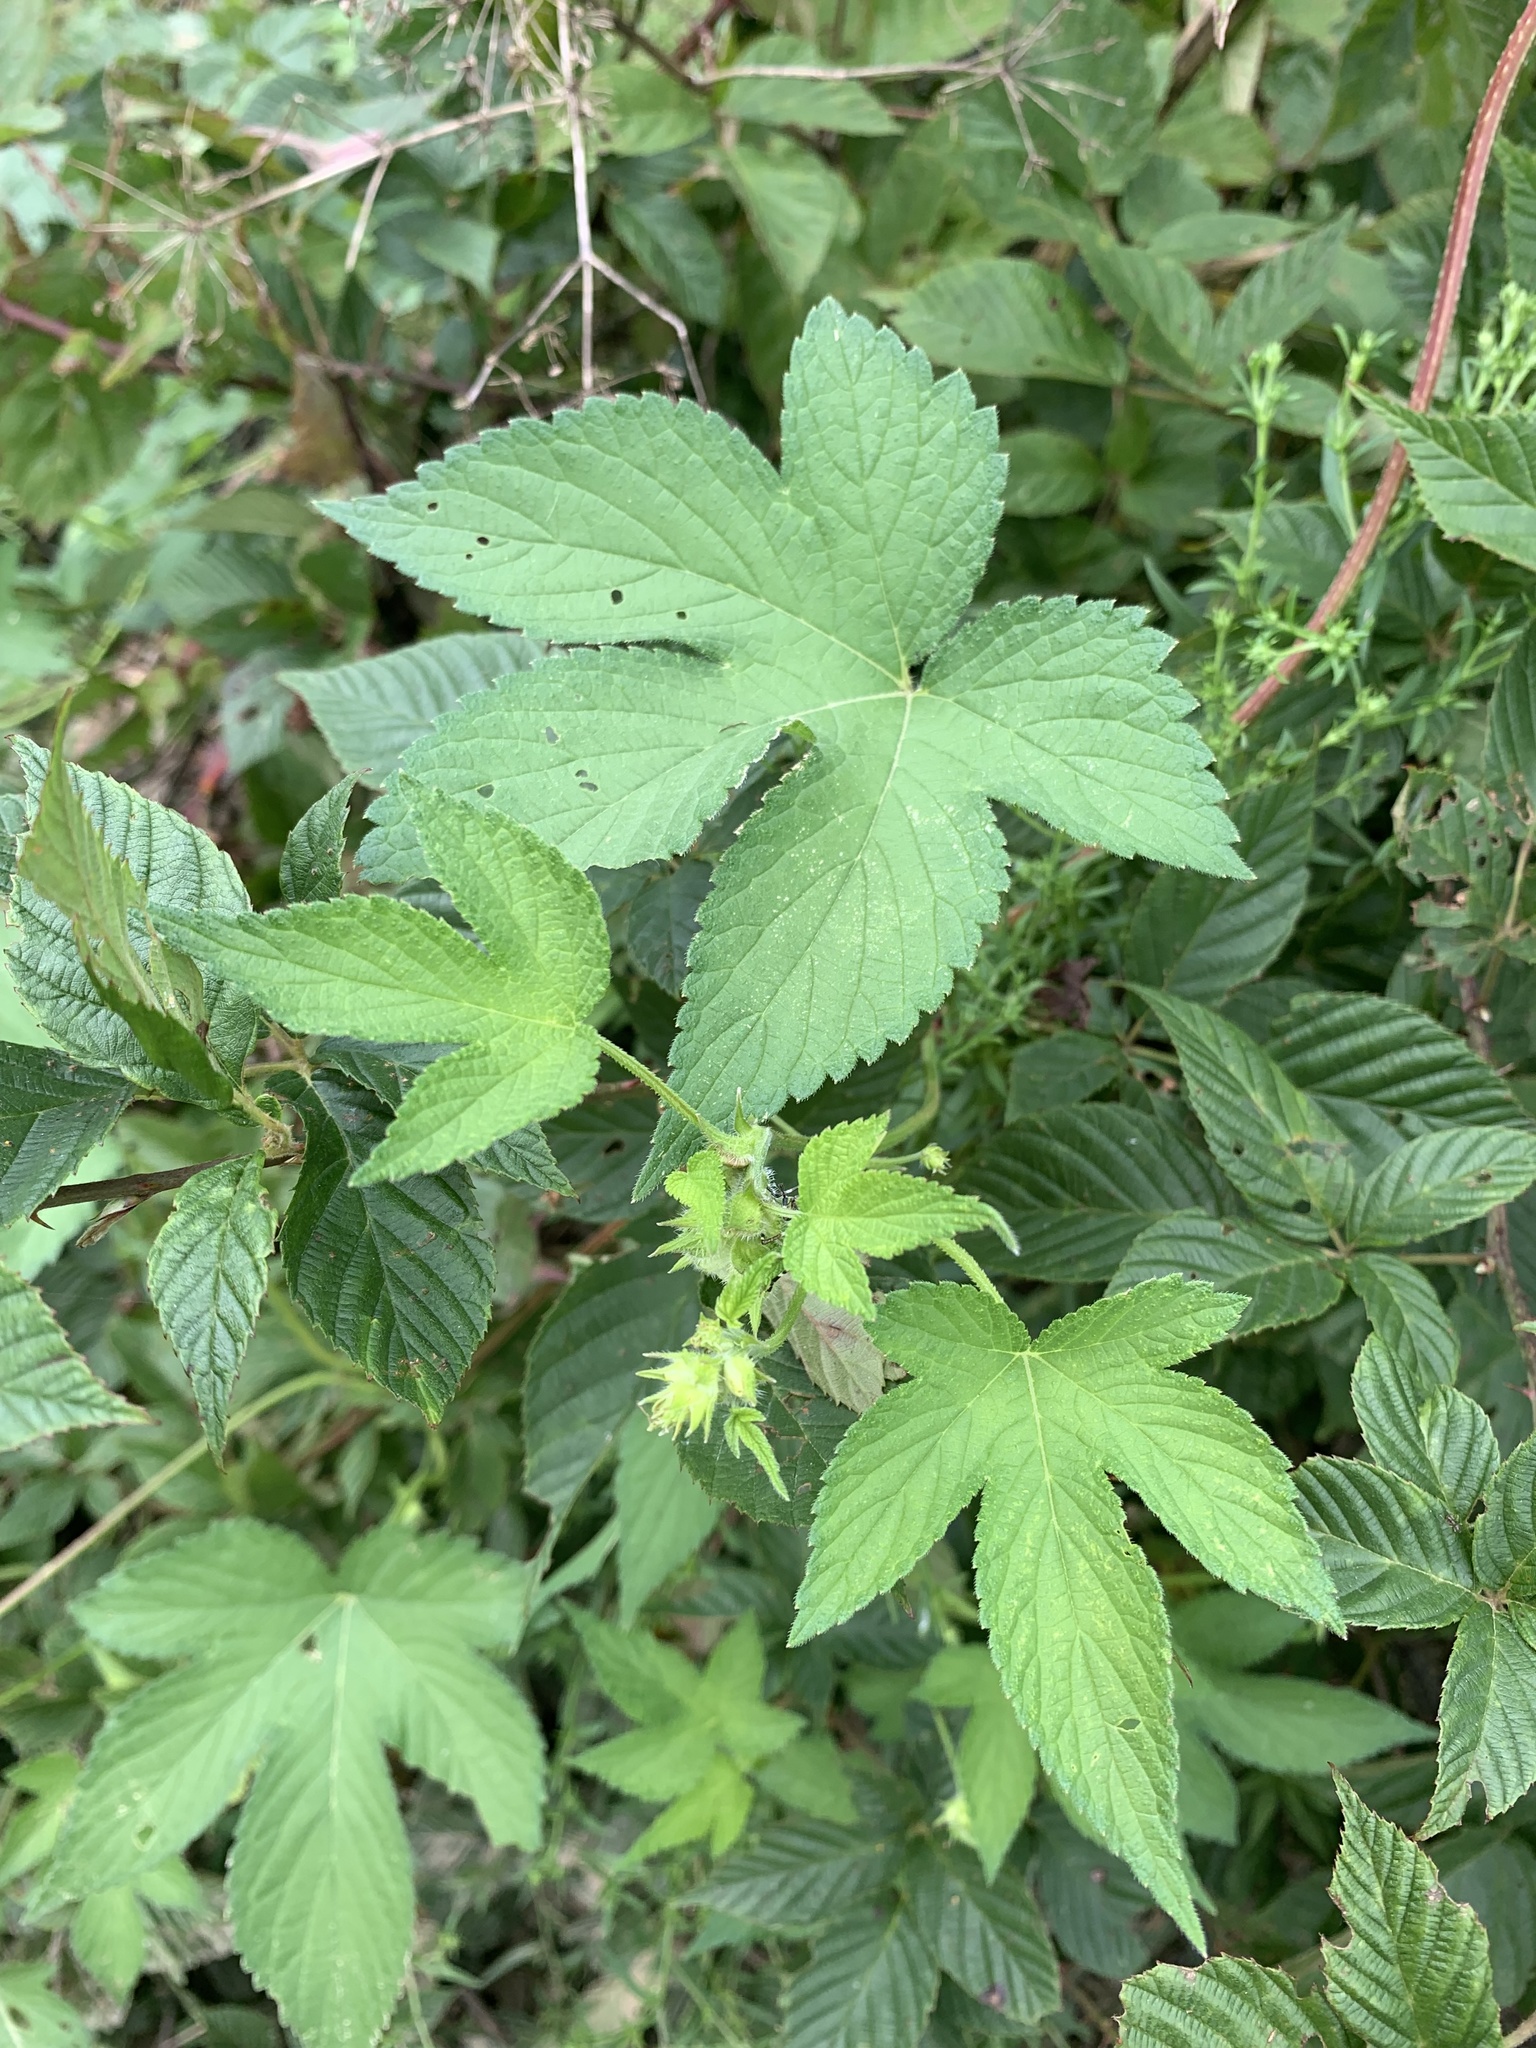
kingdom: Plantae
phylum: Tracheophyta
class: Magnoliopsida
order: Rosales
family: Cannabaceae
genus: Humulus
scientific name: Humulus scandens
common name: Japanese hop
